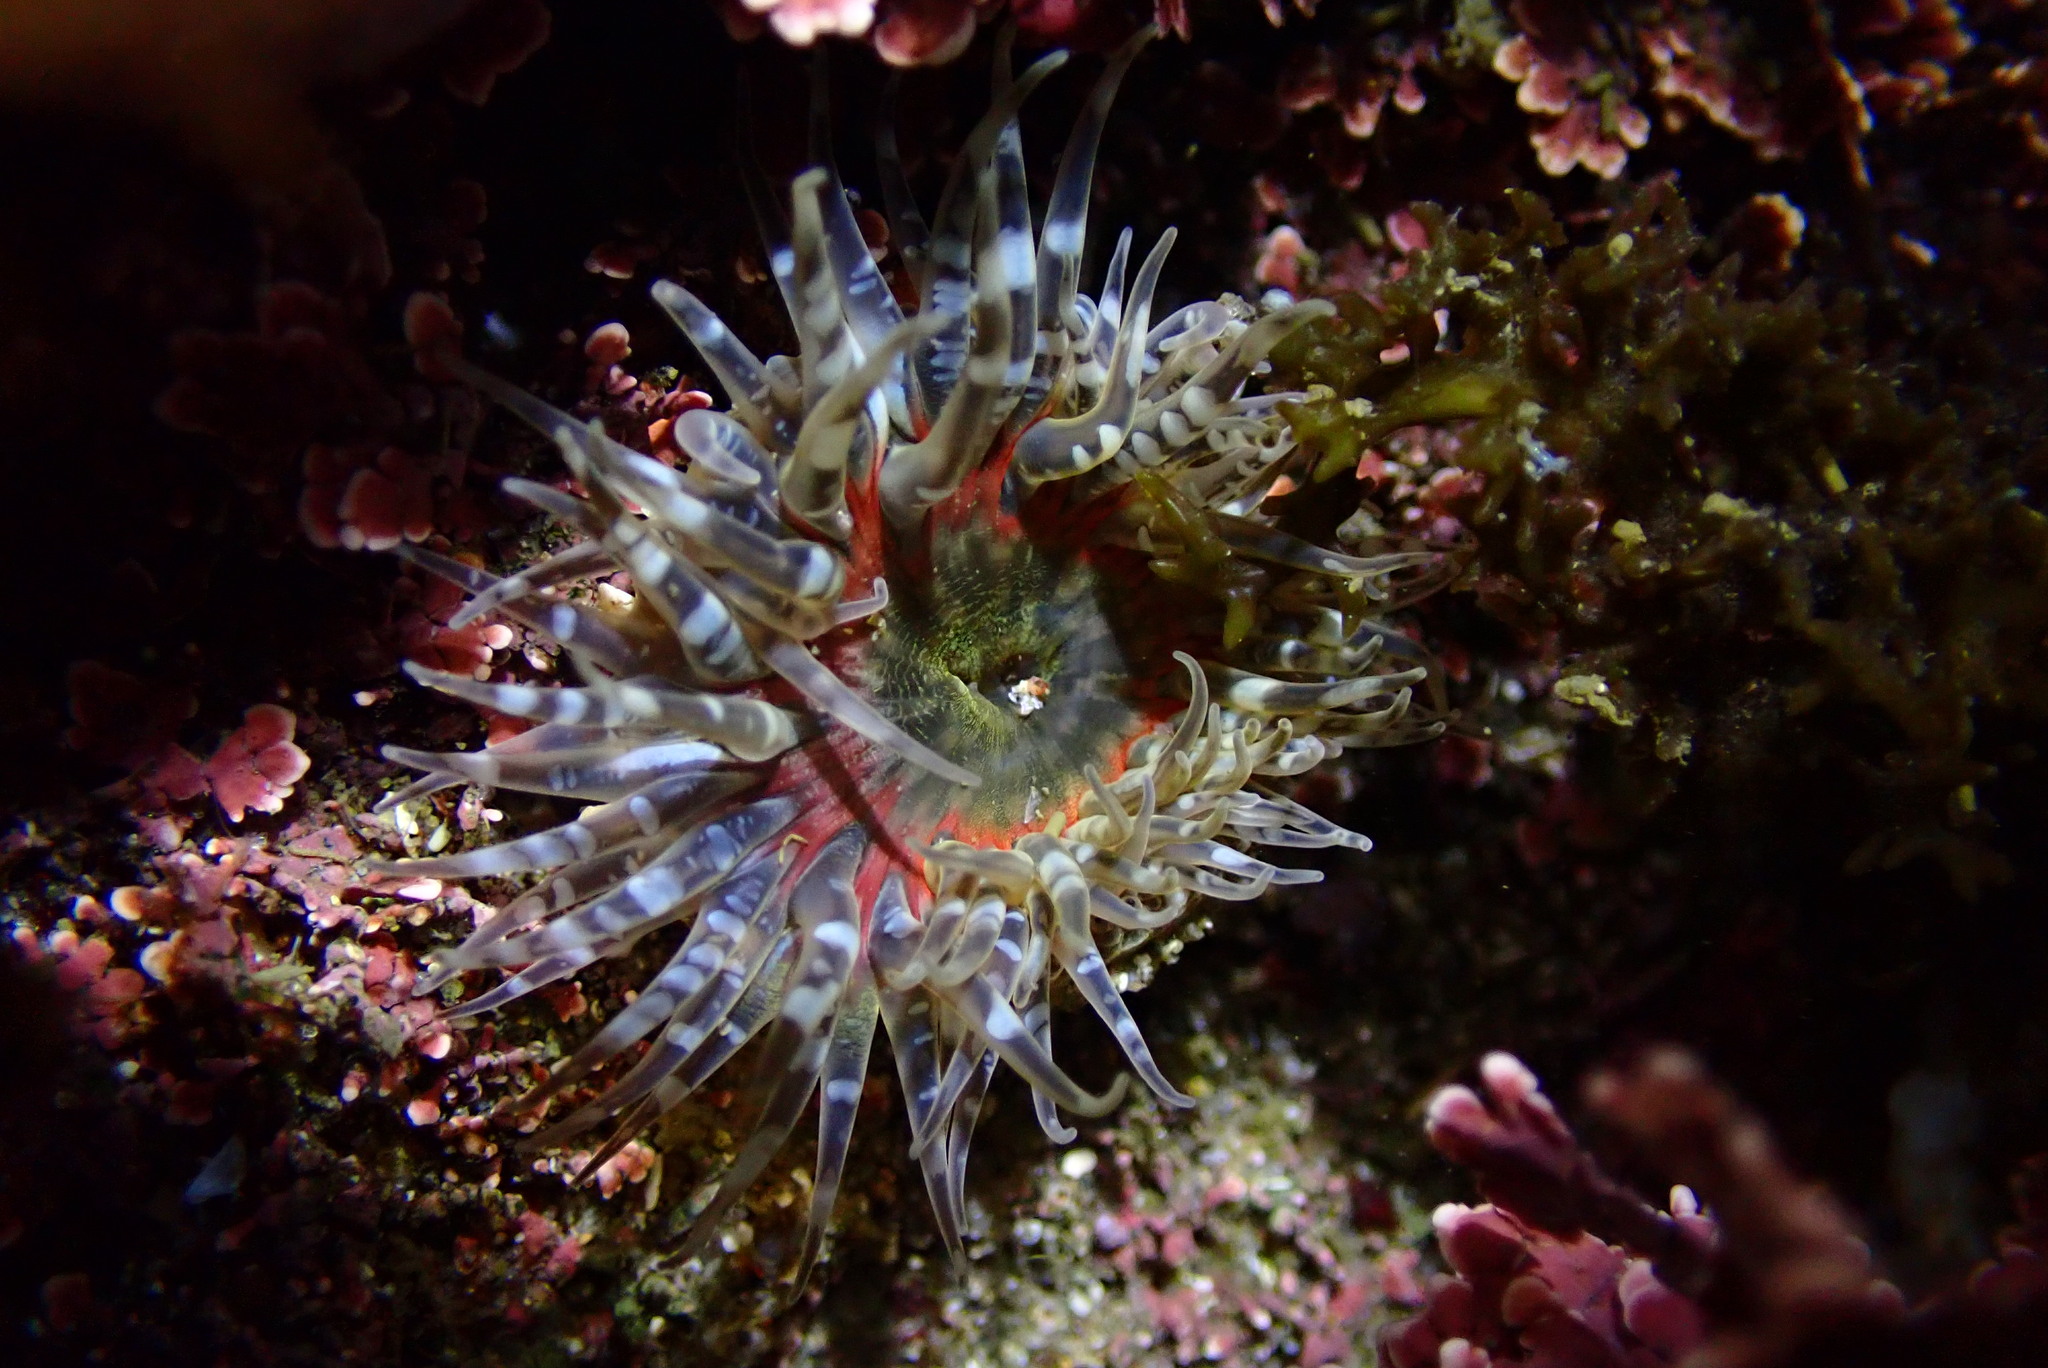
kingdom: Animalia
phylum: Cnidaria
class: Anthozoa
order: Actiniaria
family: Actiniidae
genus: Anthopleura
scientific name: Anthopleura artemisia
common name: Buried sea anemone
